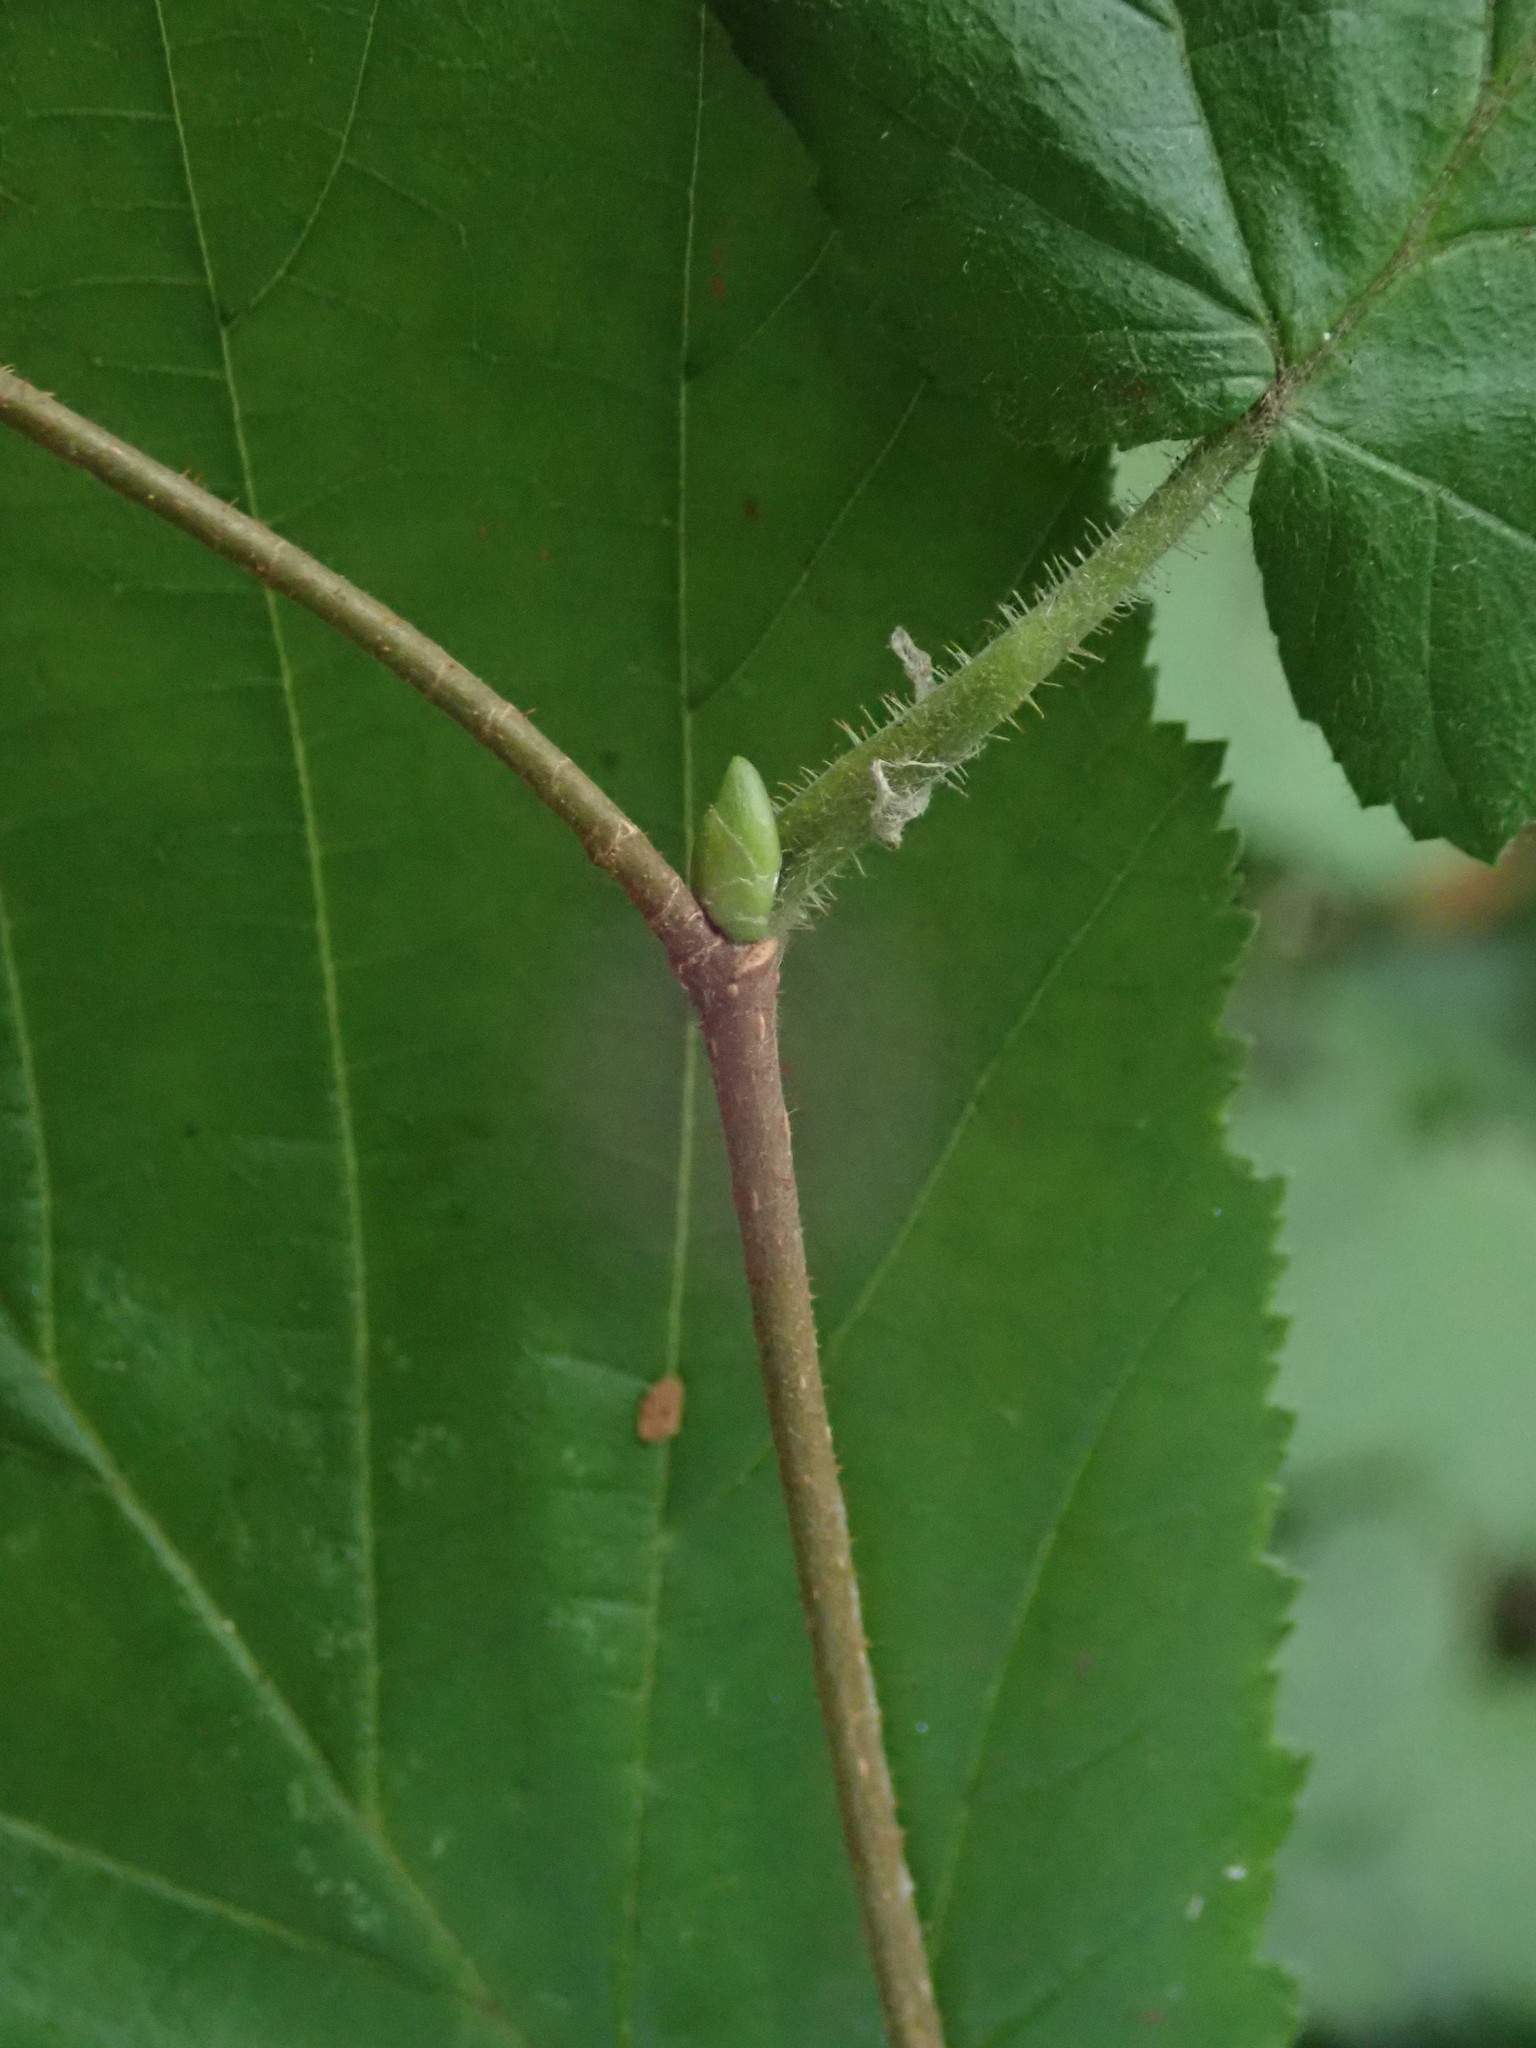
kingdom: Plantae
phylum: Tracheophyta
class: Magnoliopsida
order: Fagales
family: Betulaceae
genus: Corylus
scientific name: Corylus avellana
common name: European hazel
